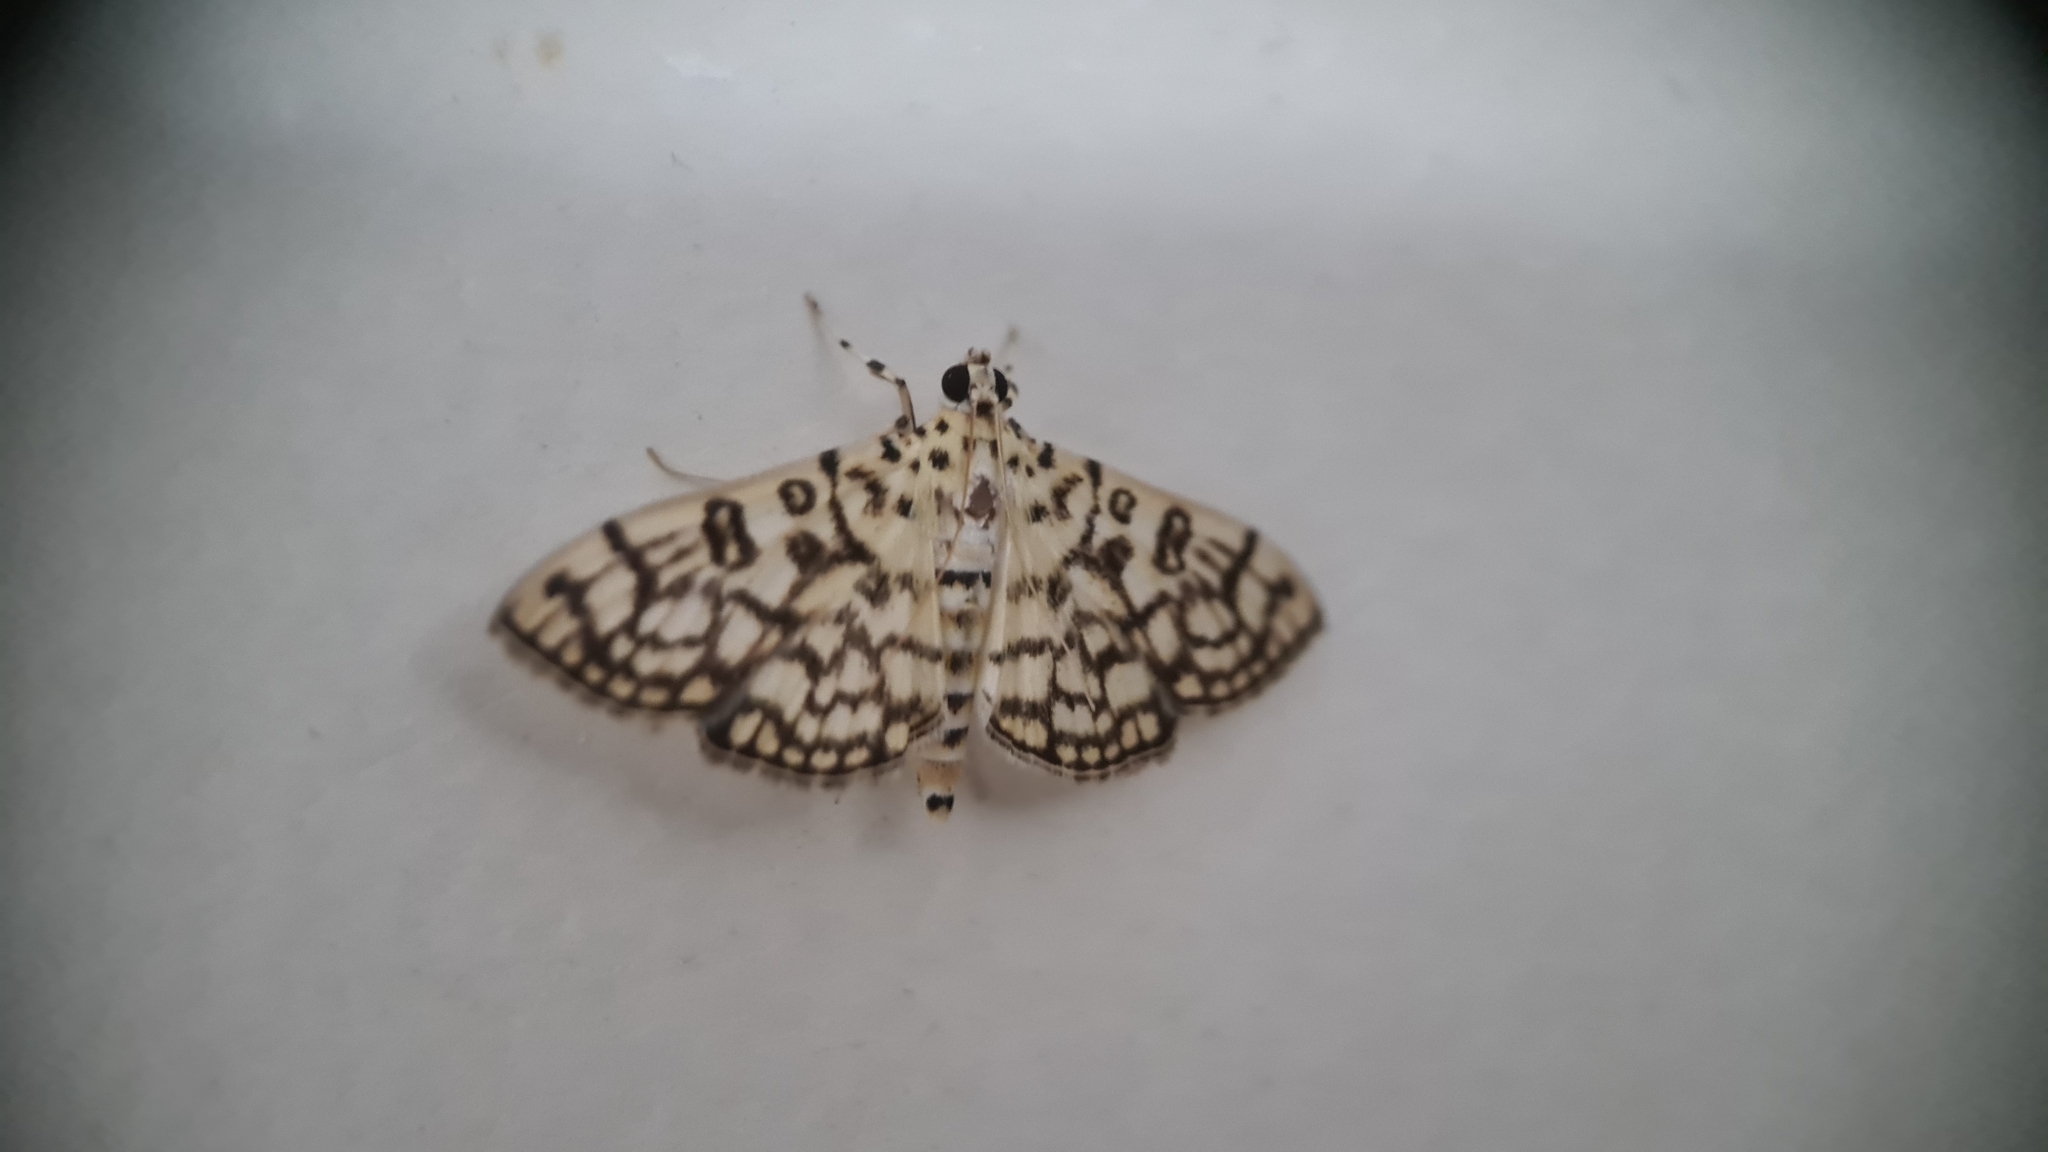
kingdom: Animalia
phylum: Arthropoda
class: Insecta
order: Lepidoptera
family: Crambidae
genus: Haritalodes
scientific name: Haritalodes derogata
